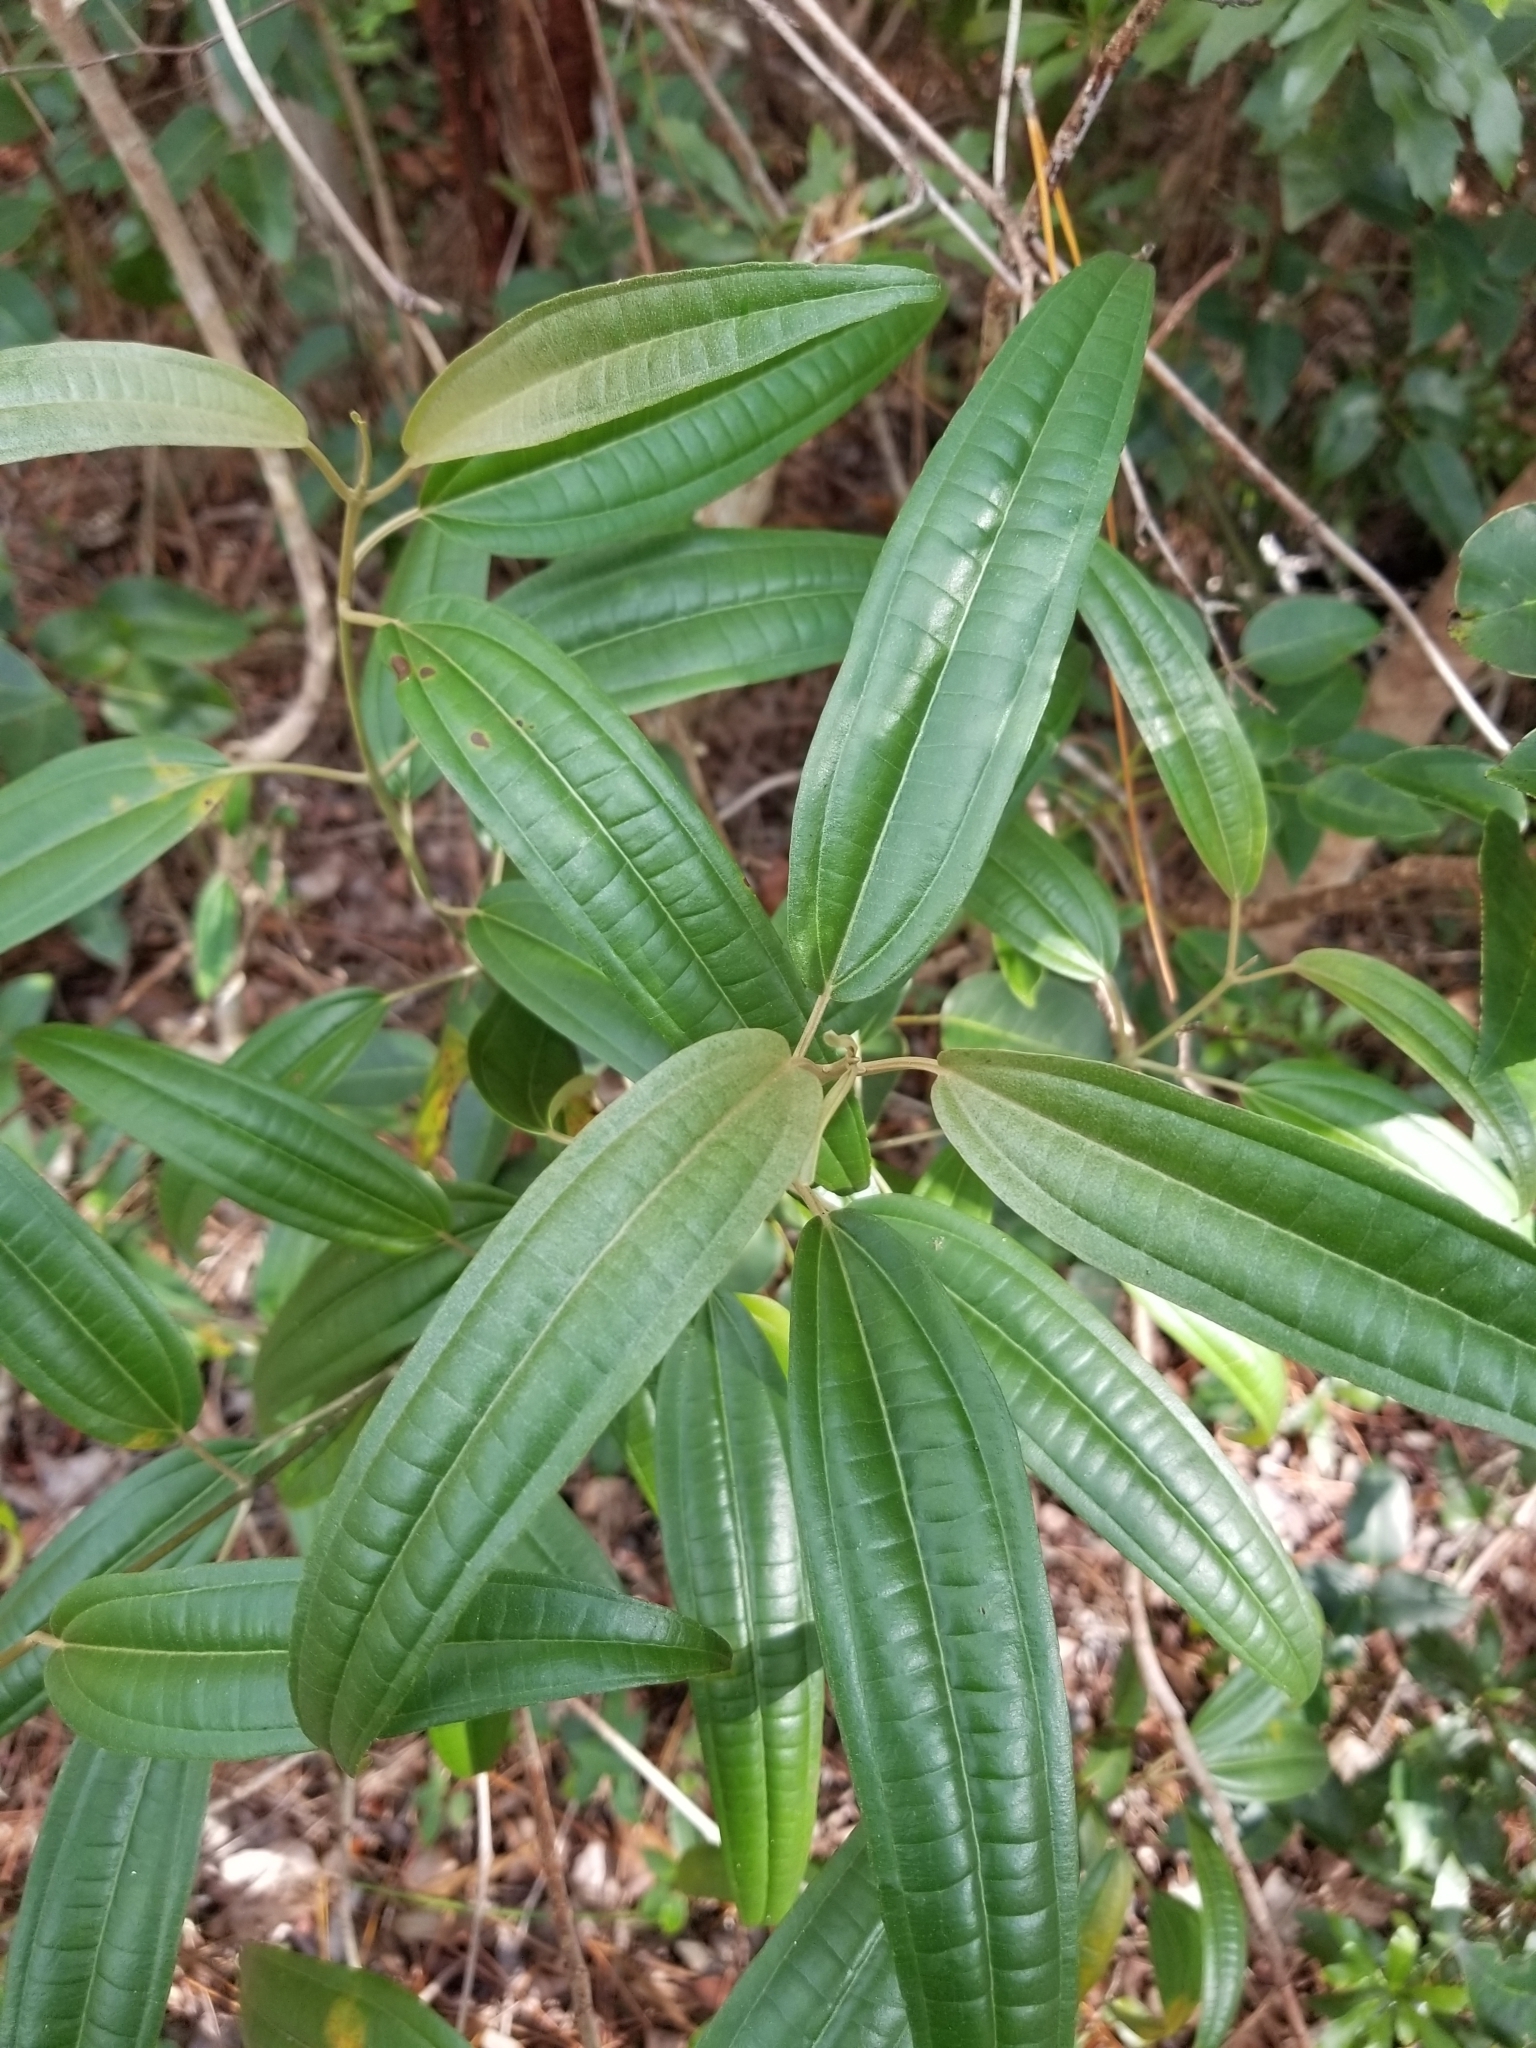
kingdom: Plantae
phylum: Tracheophyta
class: Magnoliopsida
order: Myrtales
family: Melastomataceae
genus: Miconia
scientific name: Miconia bicolor
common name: Johnnyberry
